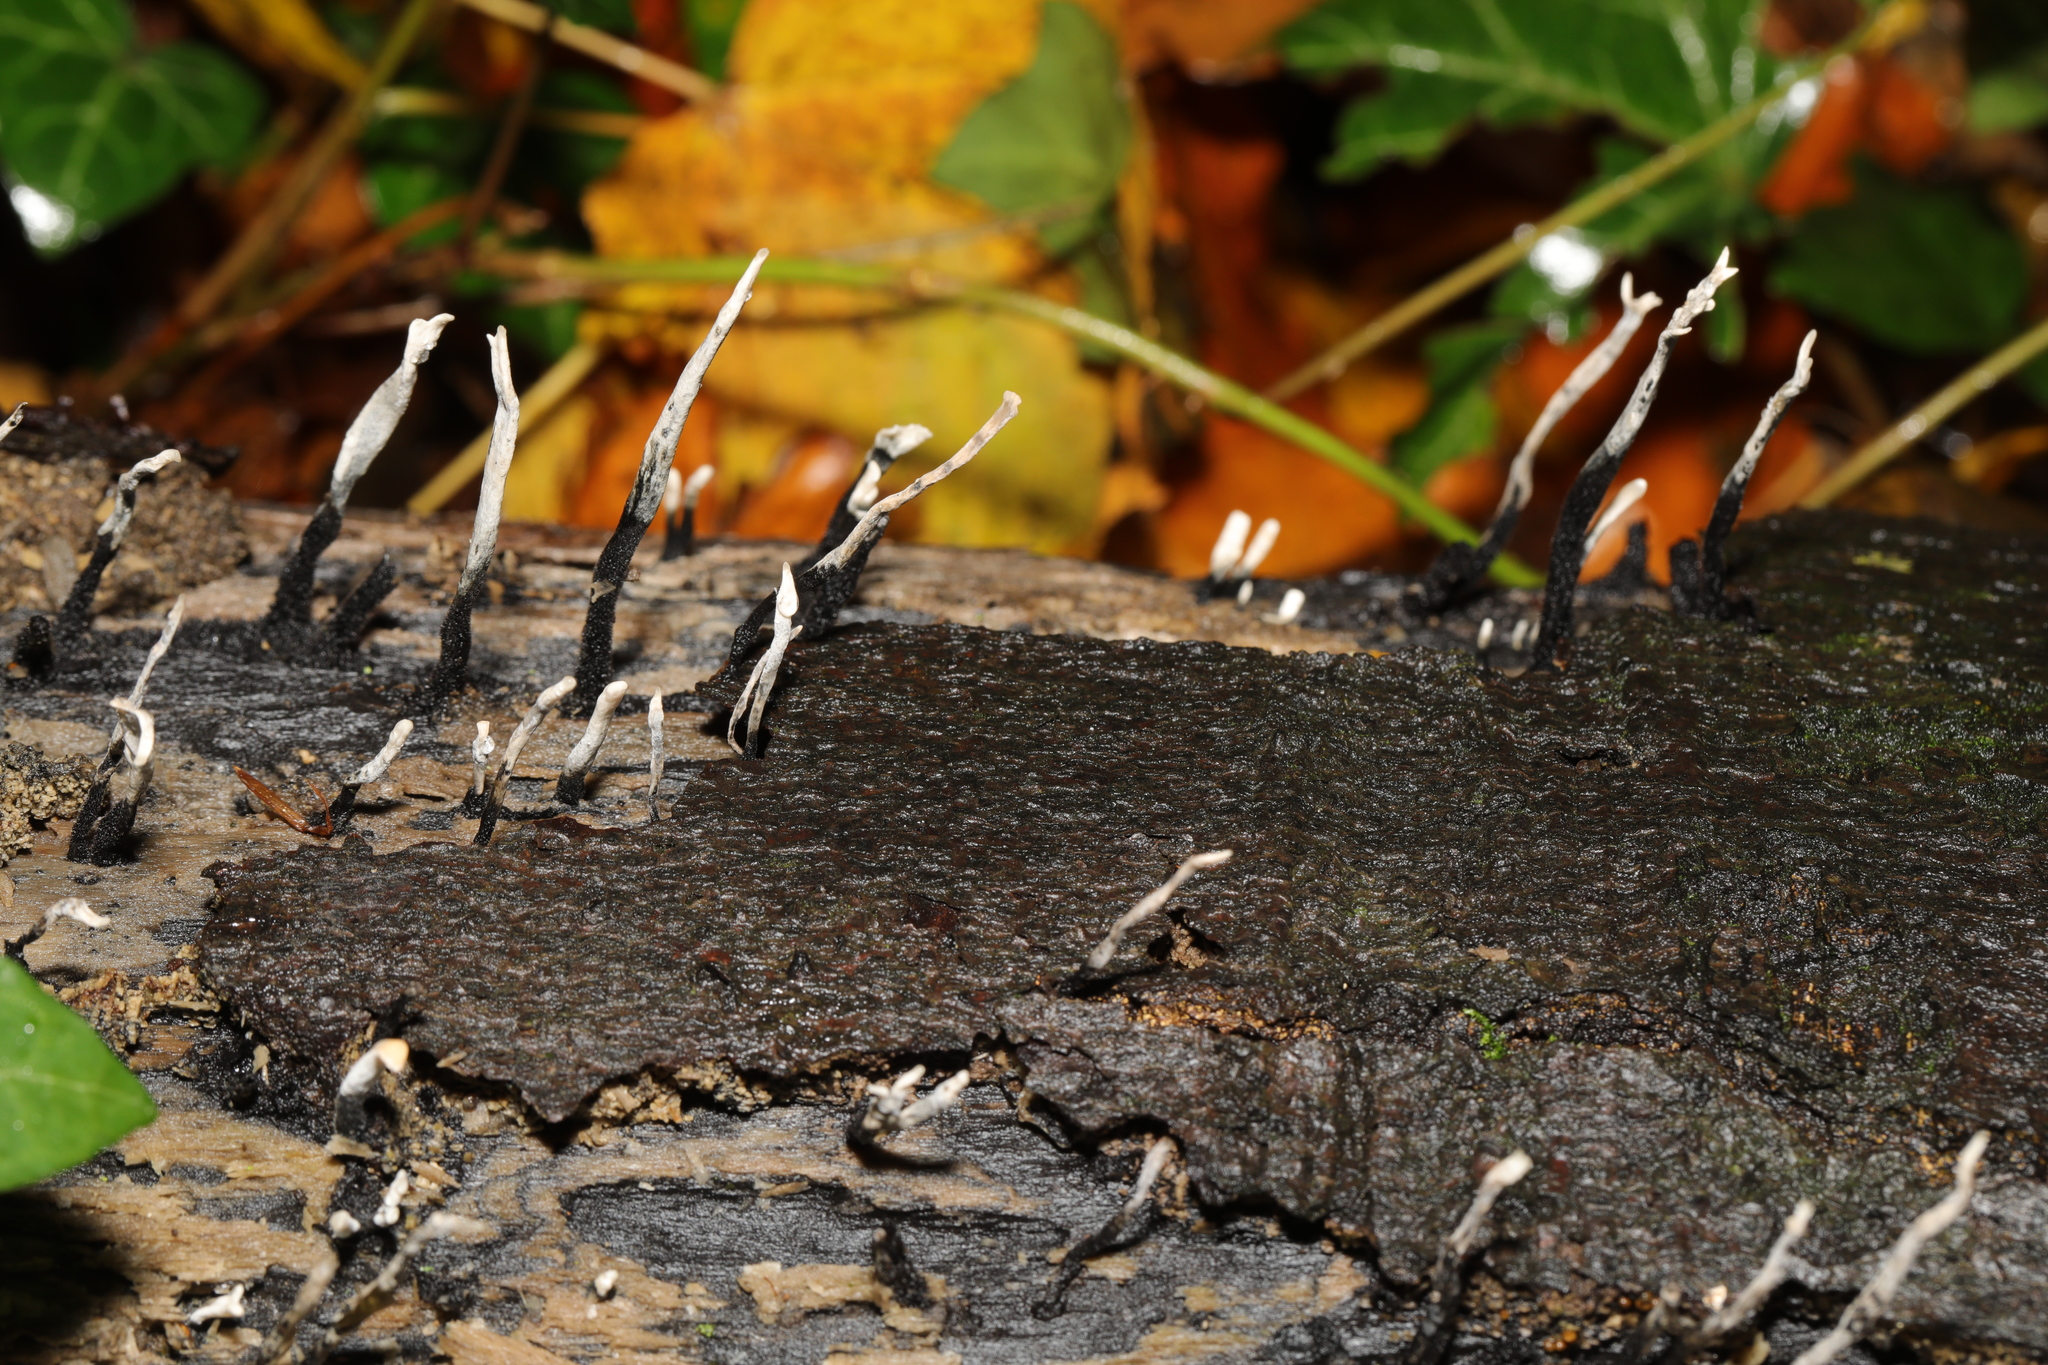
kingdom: Fungi
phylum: Ascomycota
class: Sordariomycetes
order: Xylariales
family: Xylariaceae
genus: Xylaria
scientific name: Xylaria hypoxylon
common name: Candle-snuff fungus
